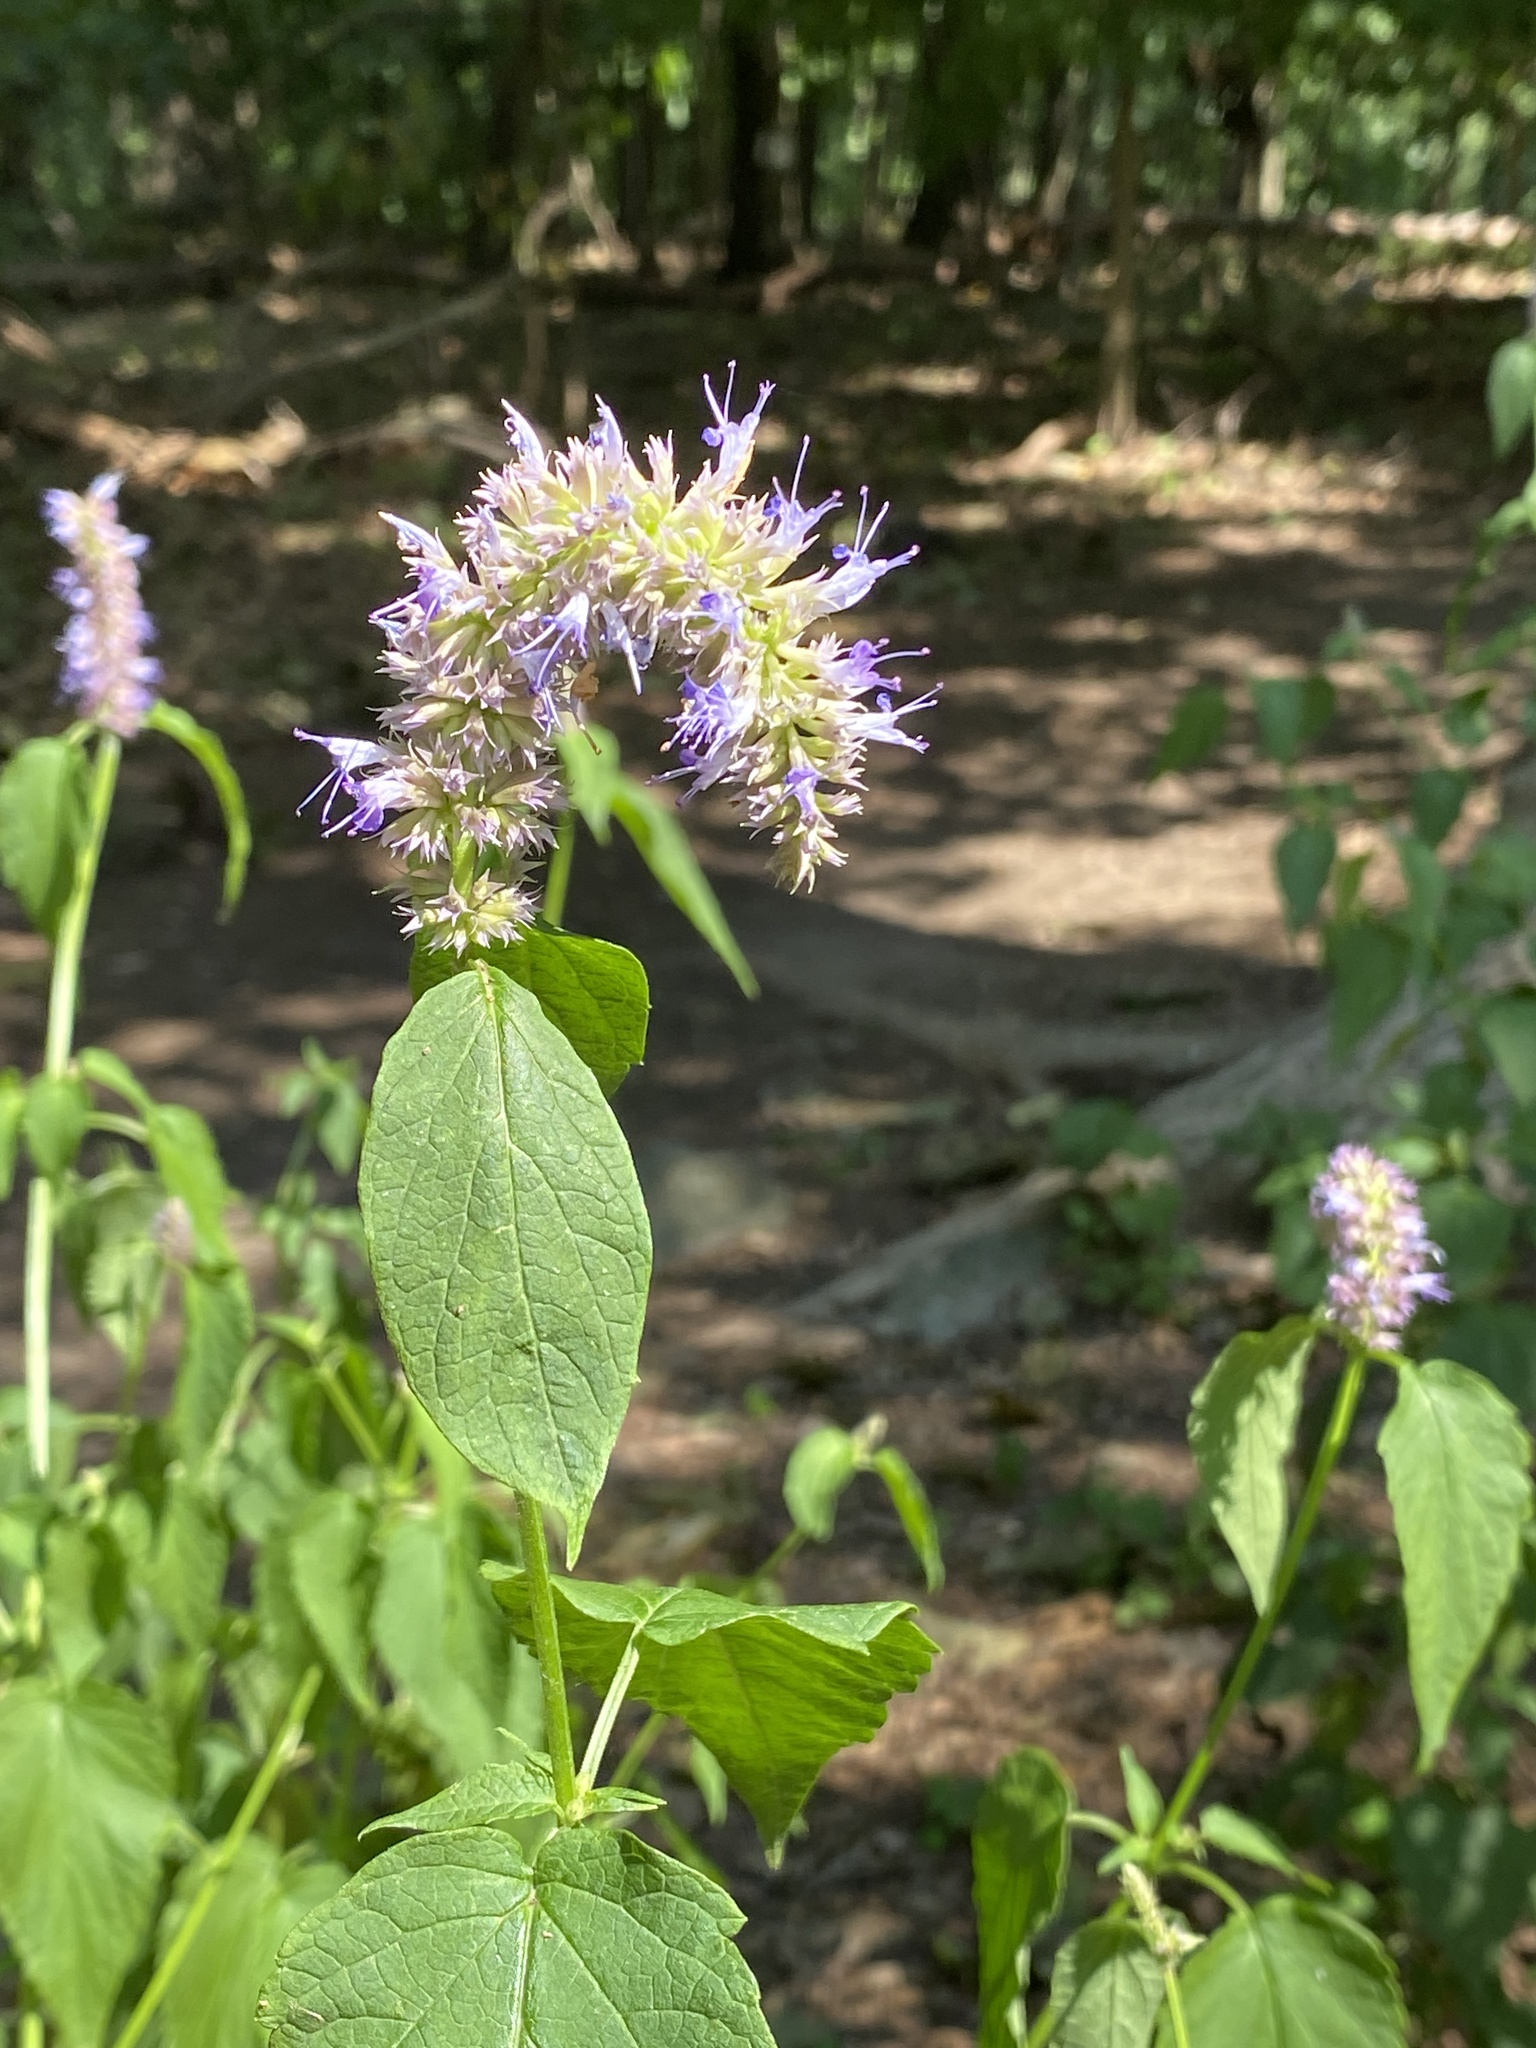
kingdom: Plantae
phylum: Tracheophyta
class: Magnoliopsida
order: Lamiales
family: Lamiaceae
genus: Agastache
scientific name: Agastache foeniculum
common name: Anise hyssop
